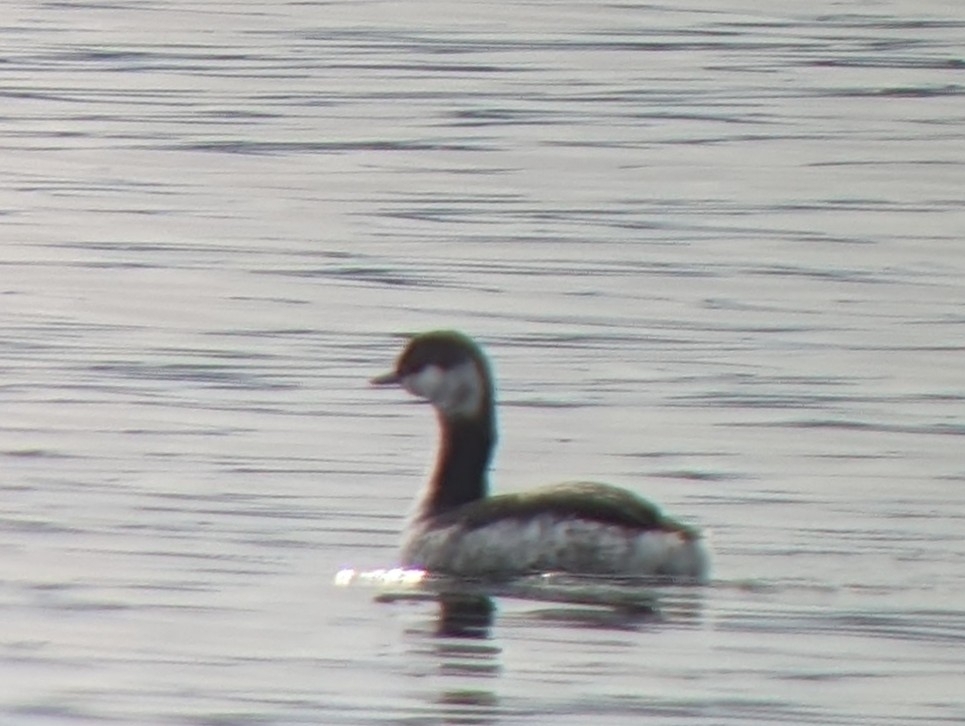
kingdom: Animalia
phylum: Chordata
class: Aves
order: Podicipediformes
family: Podicipedidae
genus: Podiceps
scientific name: Podiceps auritus
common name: Horned grebe
